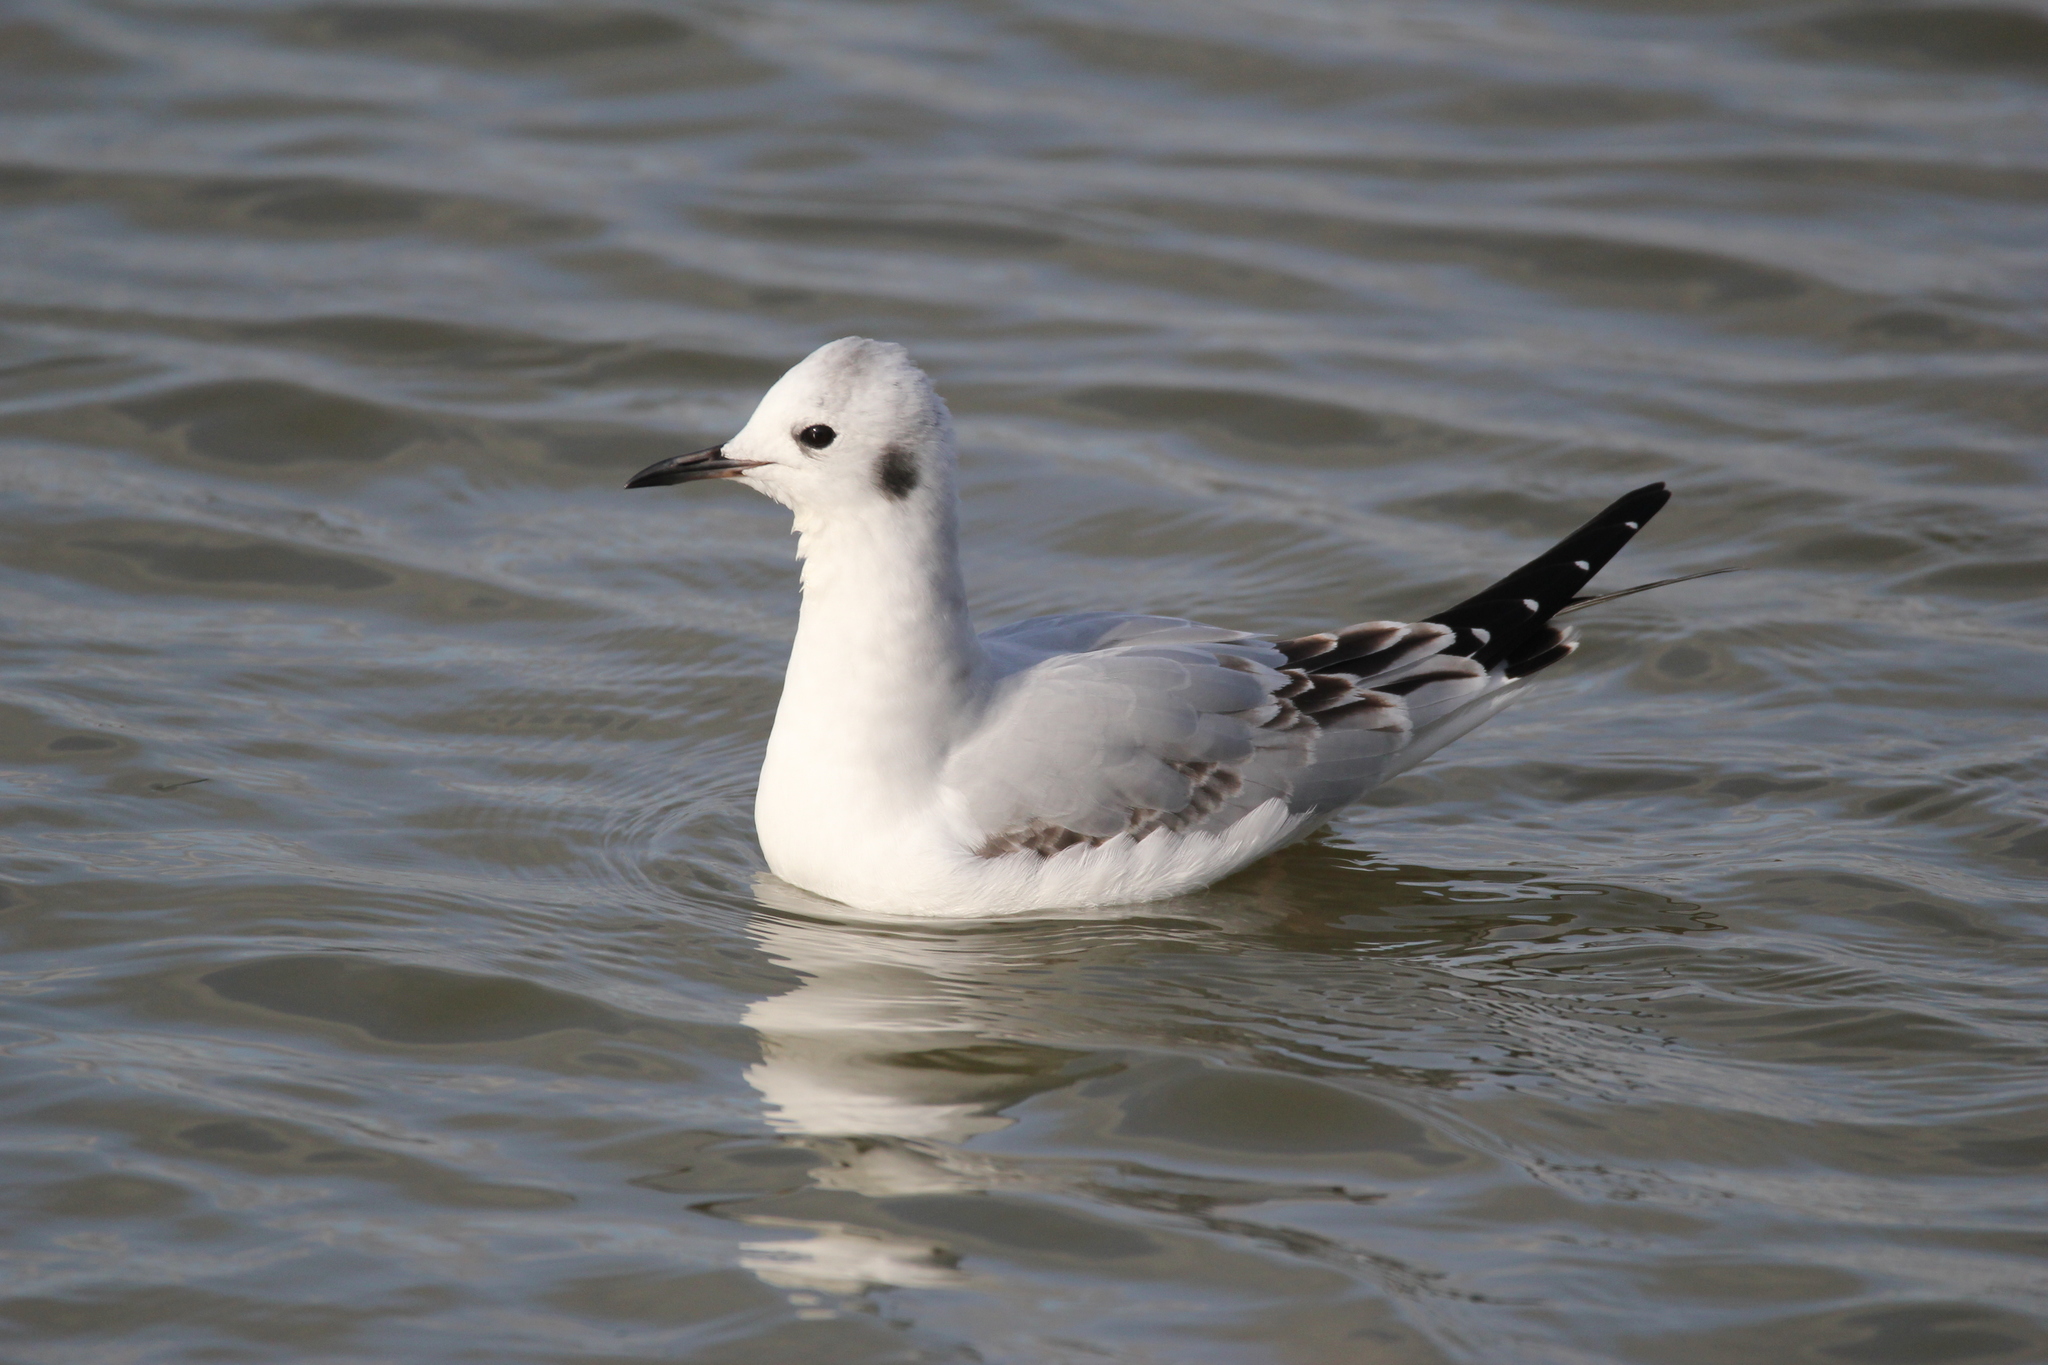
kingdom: Animalia
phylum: Chordata
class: Aves
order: Charadriiformes
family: Laridae
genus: Chroicocephalus
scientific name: Chroicocephalus philadelphia
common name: Bonaparte's gull
